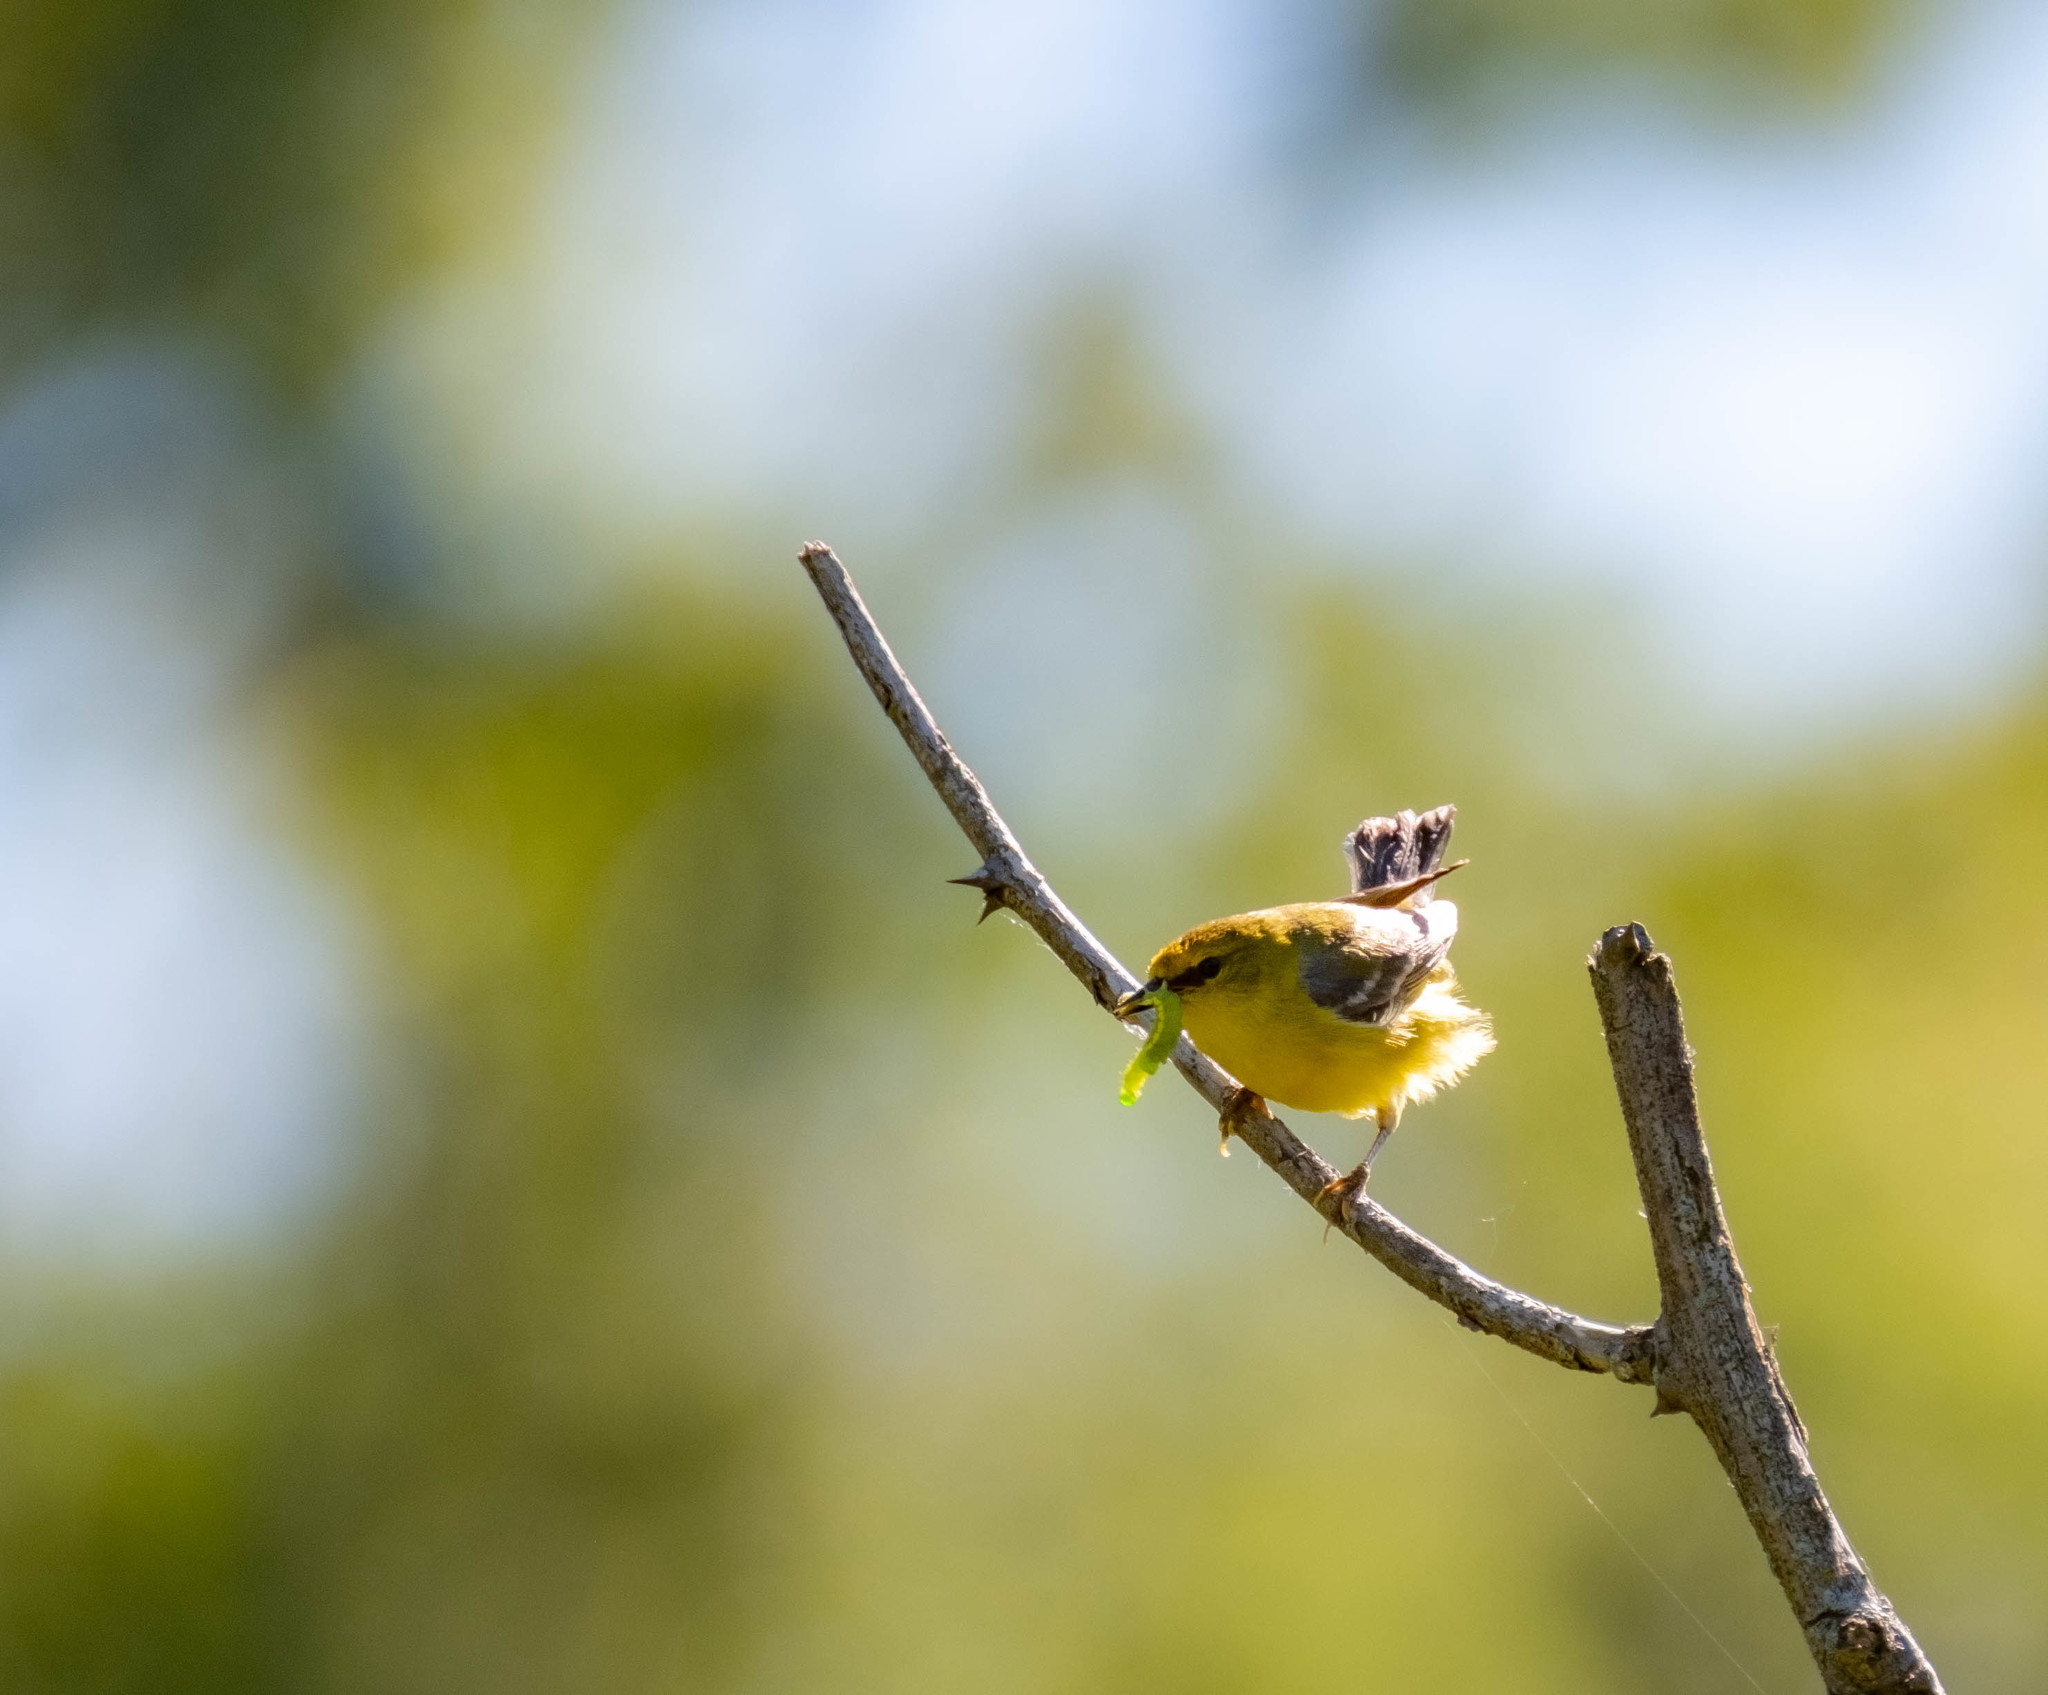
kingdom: Animalia
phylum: Chordata
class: Aves
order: Passeriformes
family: Parulidae
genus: Vermivora
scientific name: Vermivora cyanoptera
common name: Blue-winged warbler
